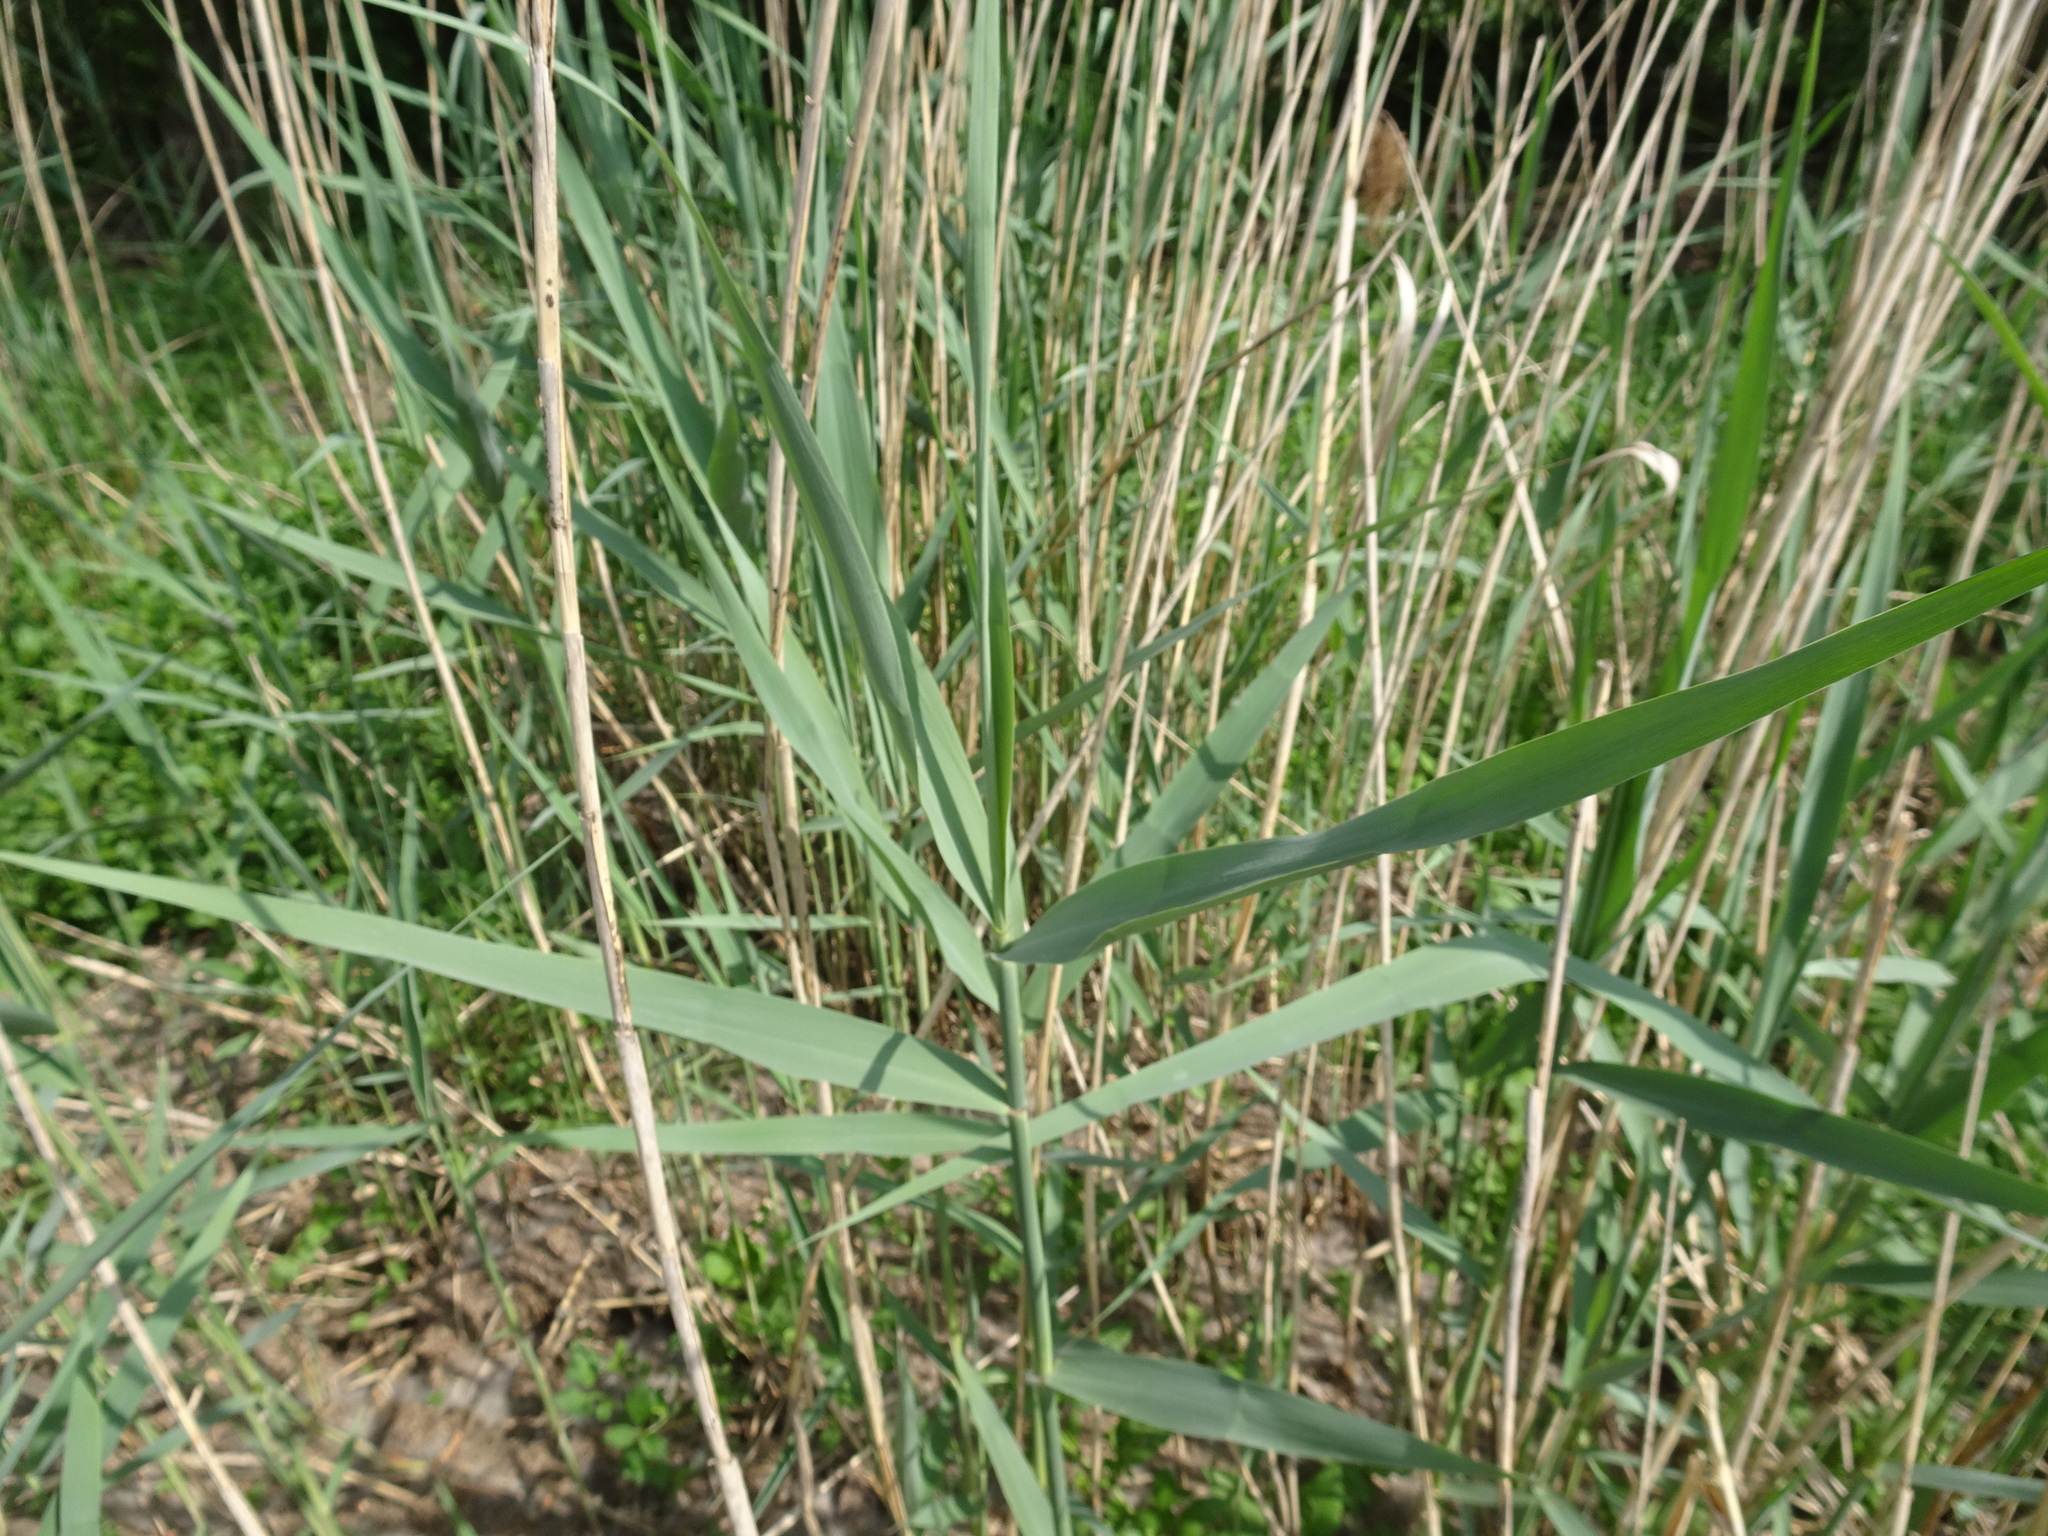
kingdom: Plantae
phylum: Tracheophyta
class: Liliopsida
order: Poales
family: Poaceae
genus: Phragmites
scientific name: Phragmites australis
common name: Common reed
